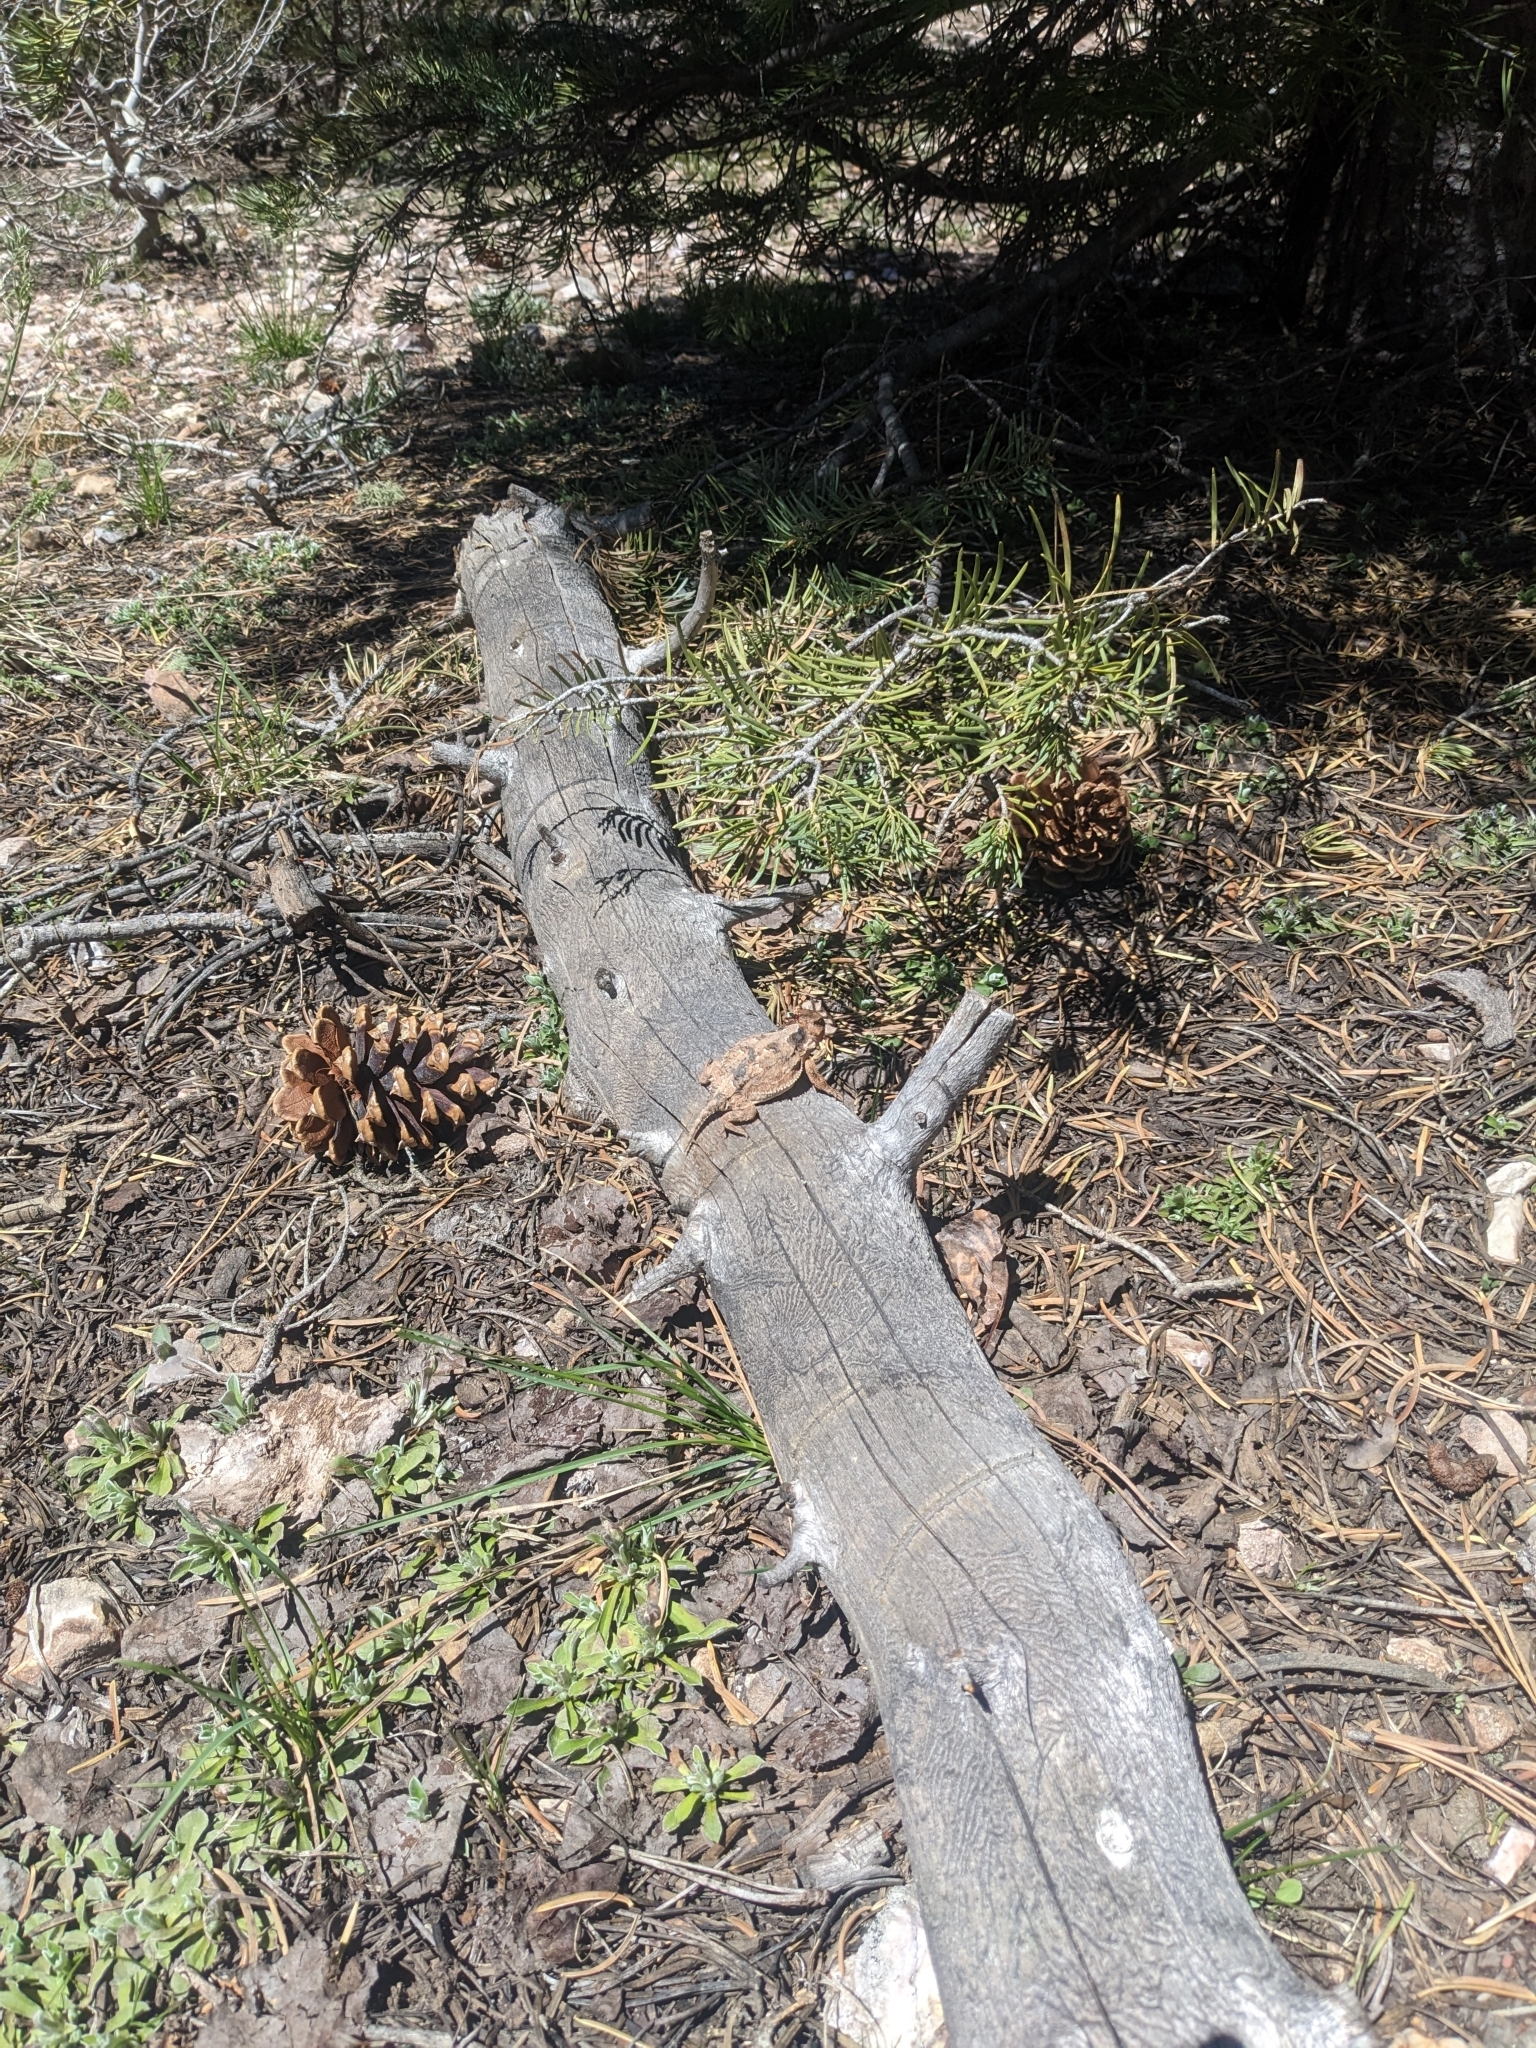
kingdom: Animalia
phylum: Chordata
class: Squamata
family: Phrynosomatidae
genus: Phrynosoma
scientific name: Phrynosoma hernandesi
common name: Greater short-horned lizard
